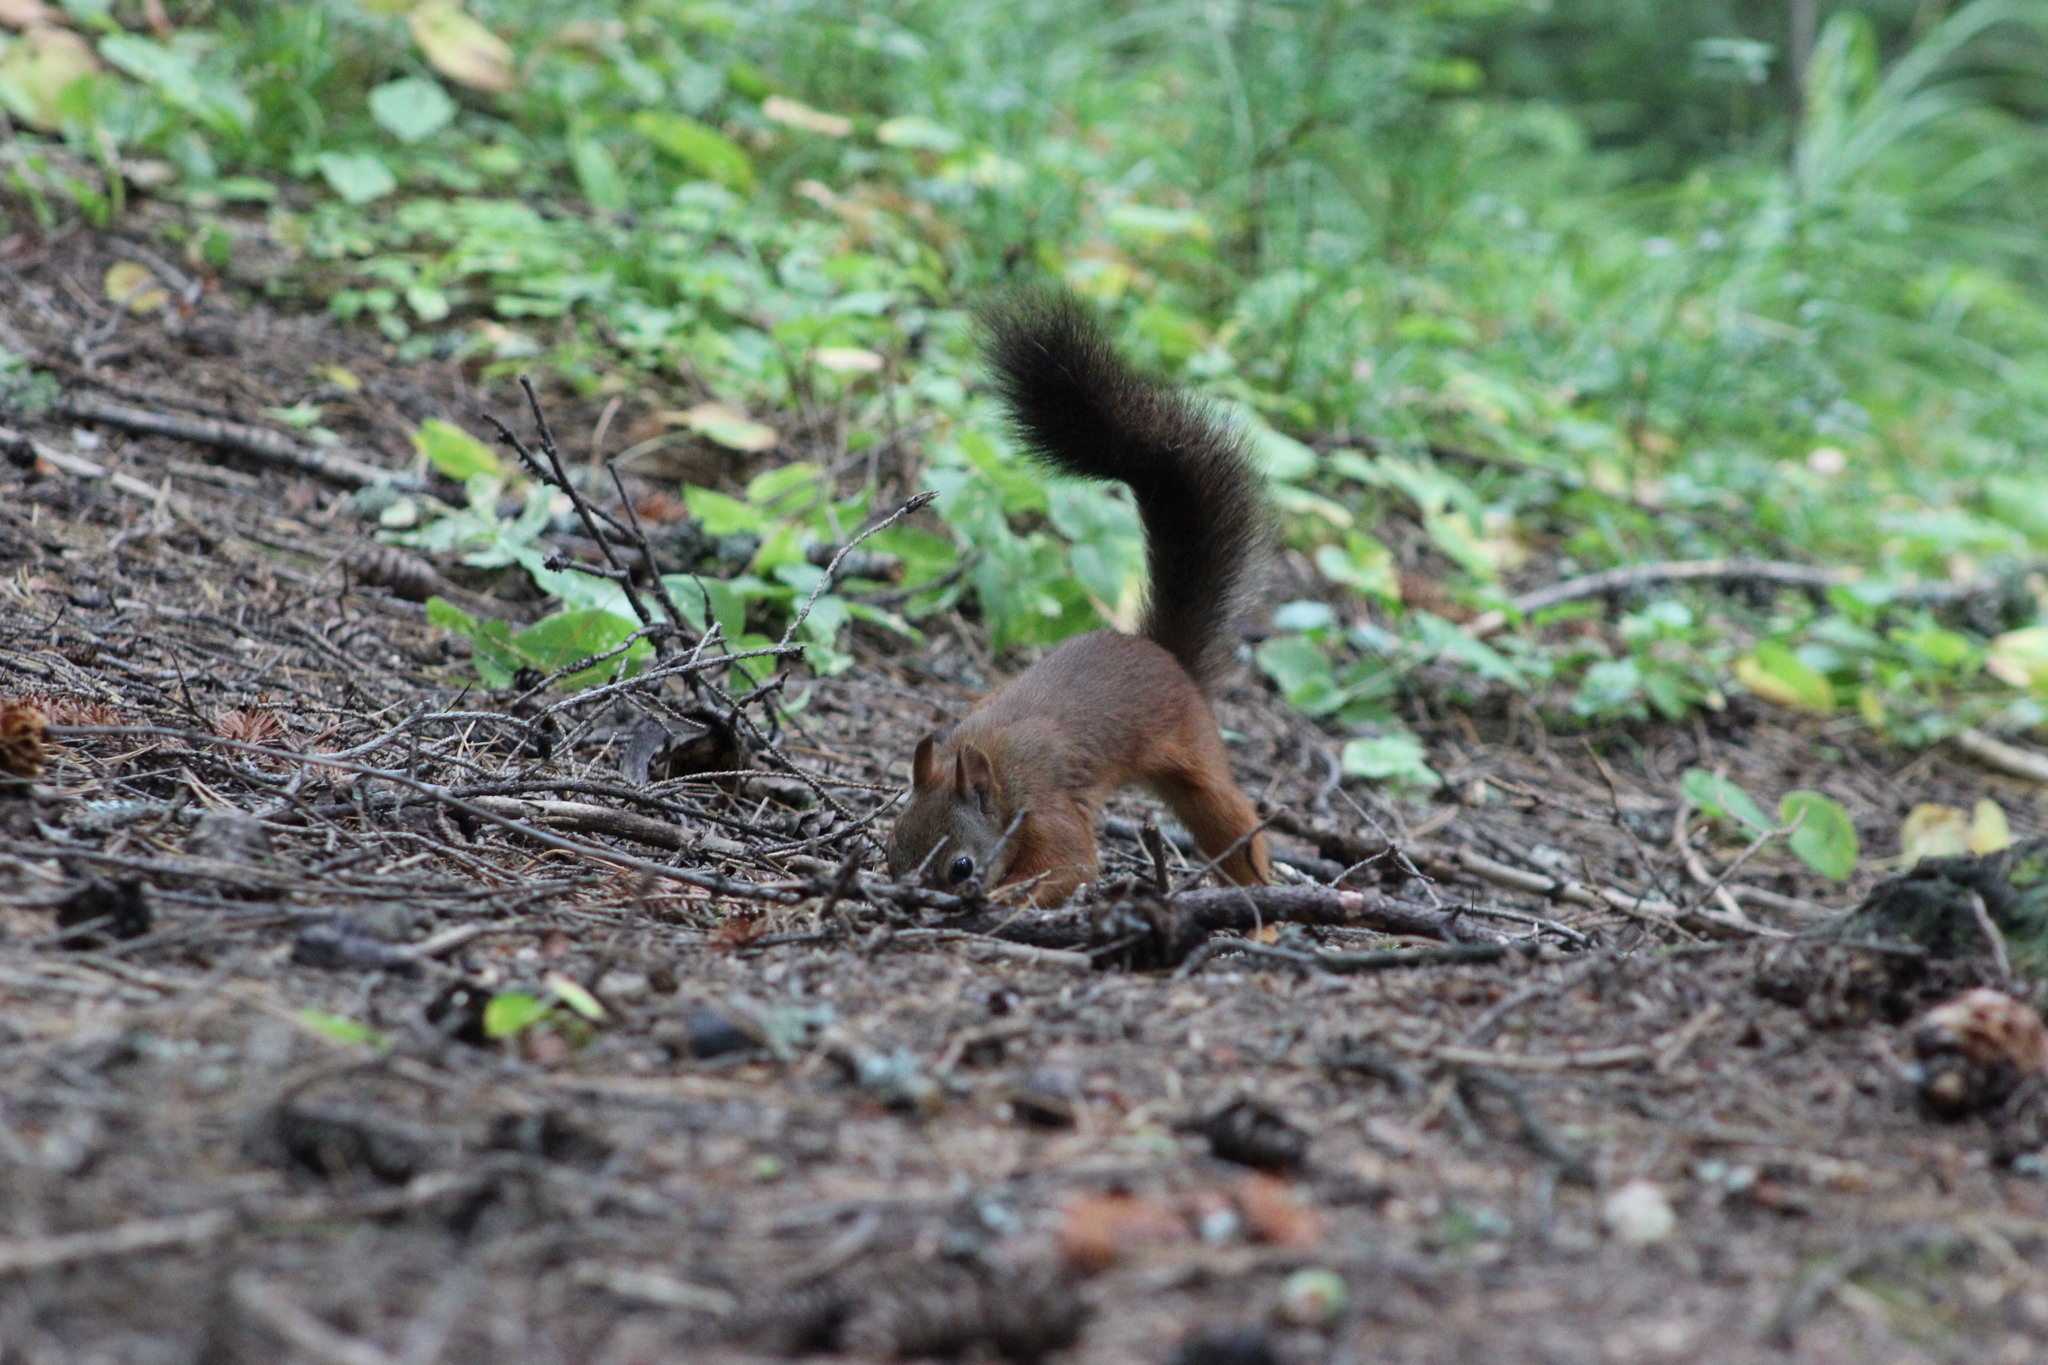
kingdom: Animalia
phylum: Chordata
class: Mammalia
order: Rodentia
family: Sciuridae
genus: Sciurus
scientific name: Sciurus vulgaris
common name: Eurasian red squirrel
